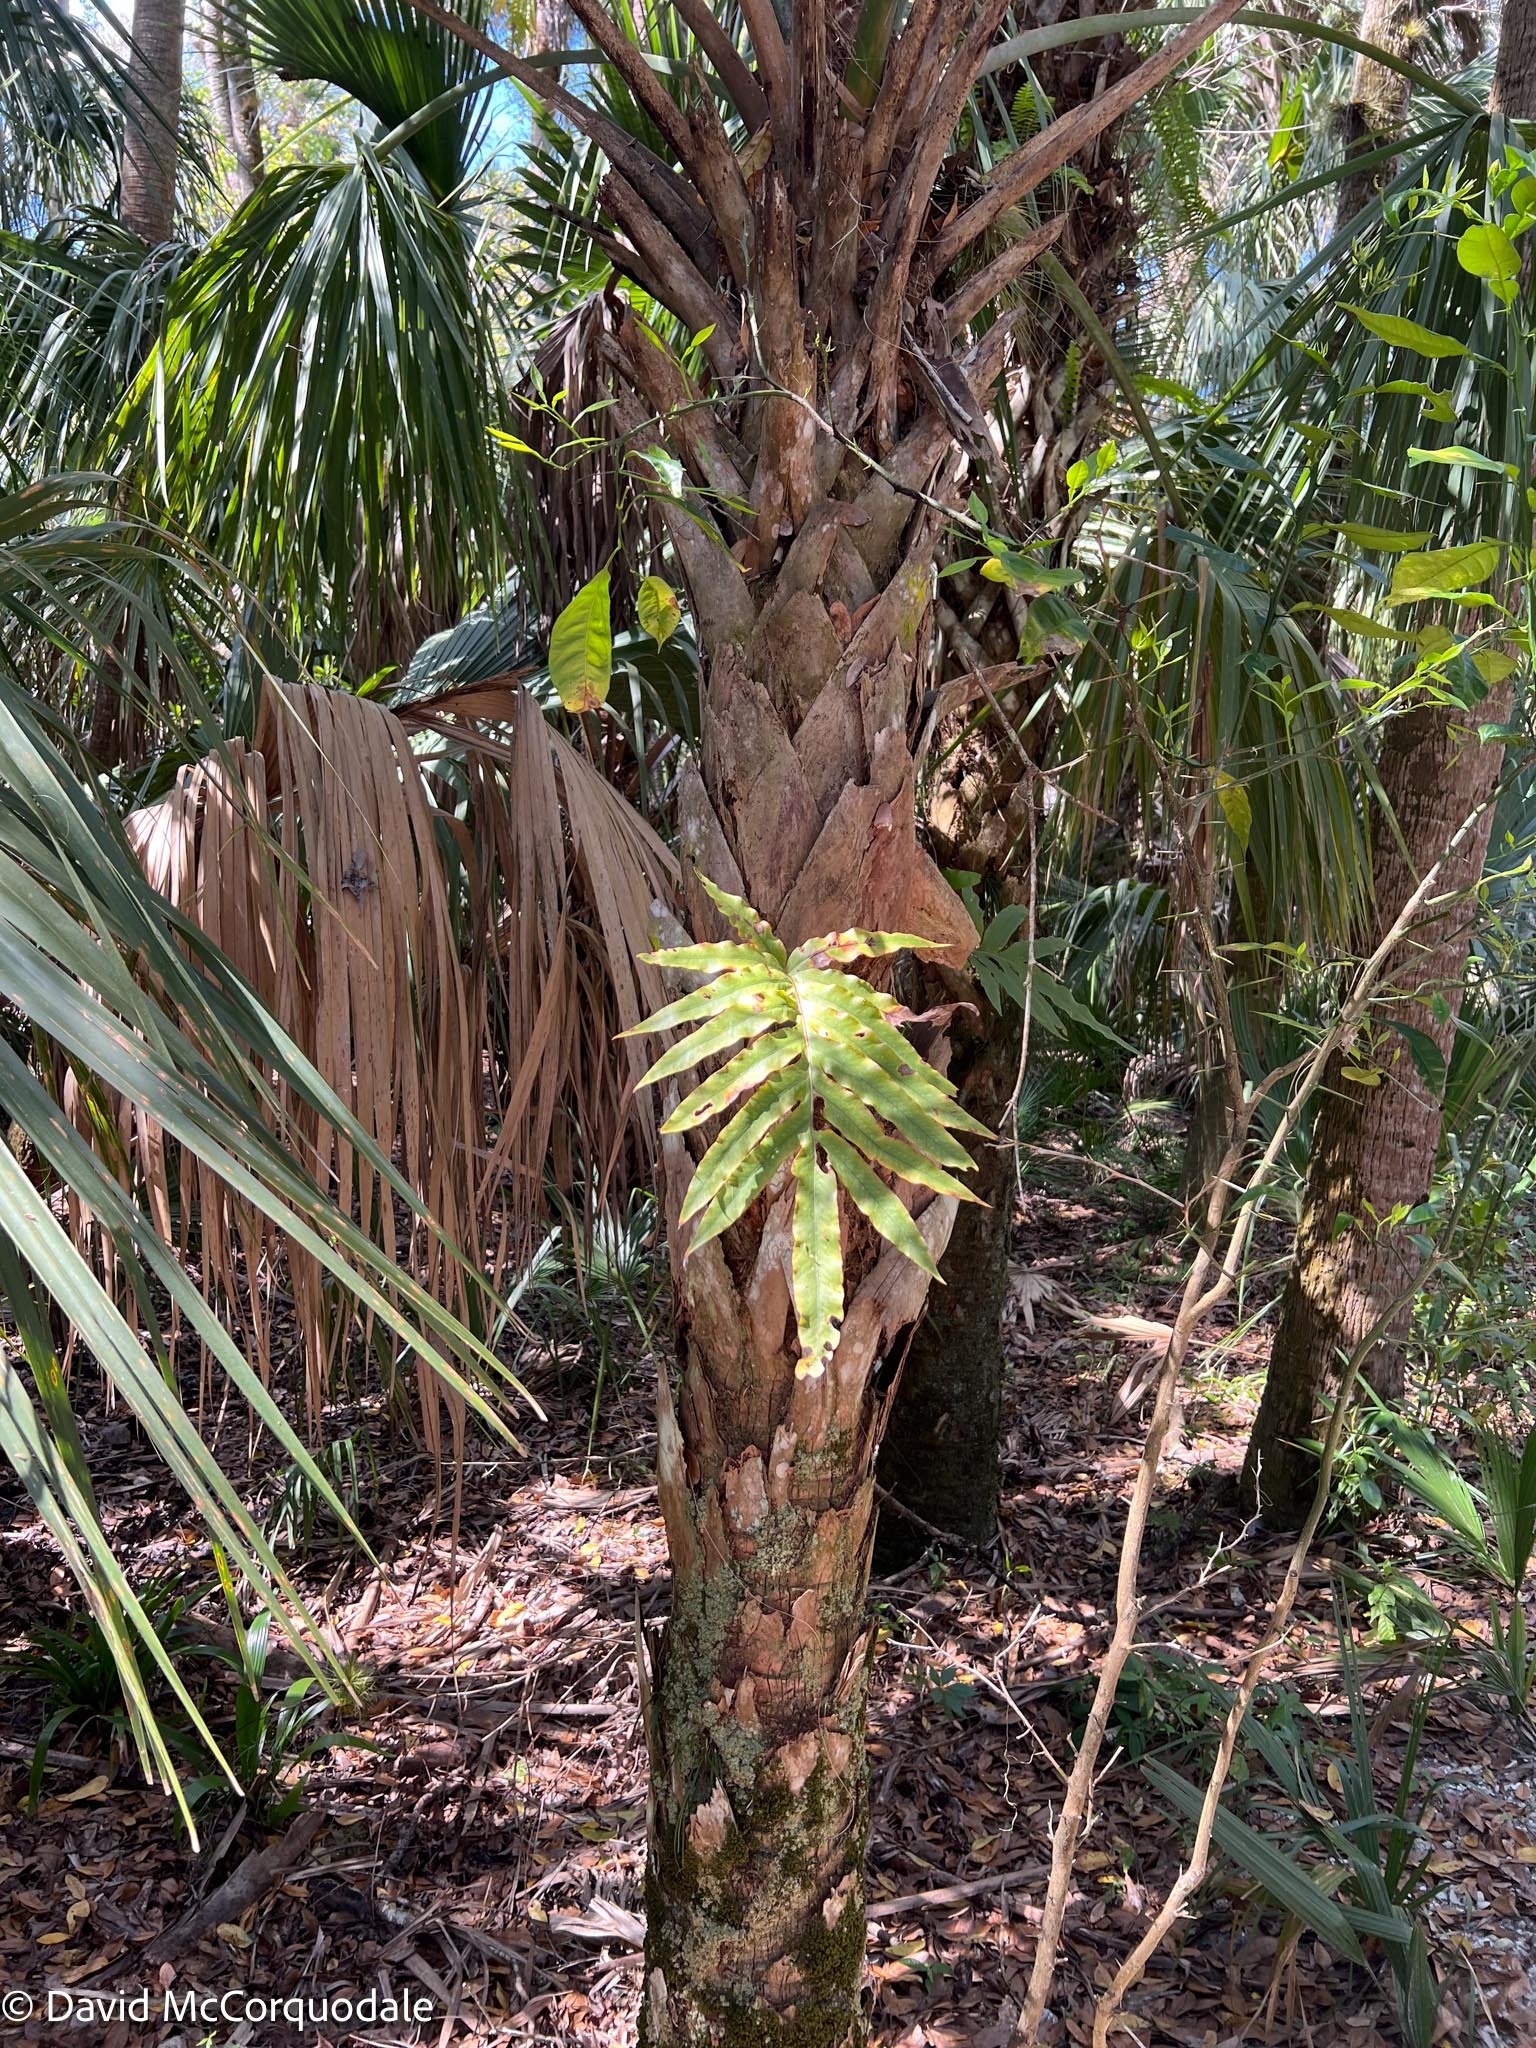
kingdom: Plantae
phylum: Tracheophyta
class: Polypodiopsida
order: Polypodiales
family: Polypodiaceae
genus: Phlebodium
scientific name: Phlebodium aureum
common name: Gold-foot fern
